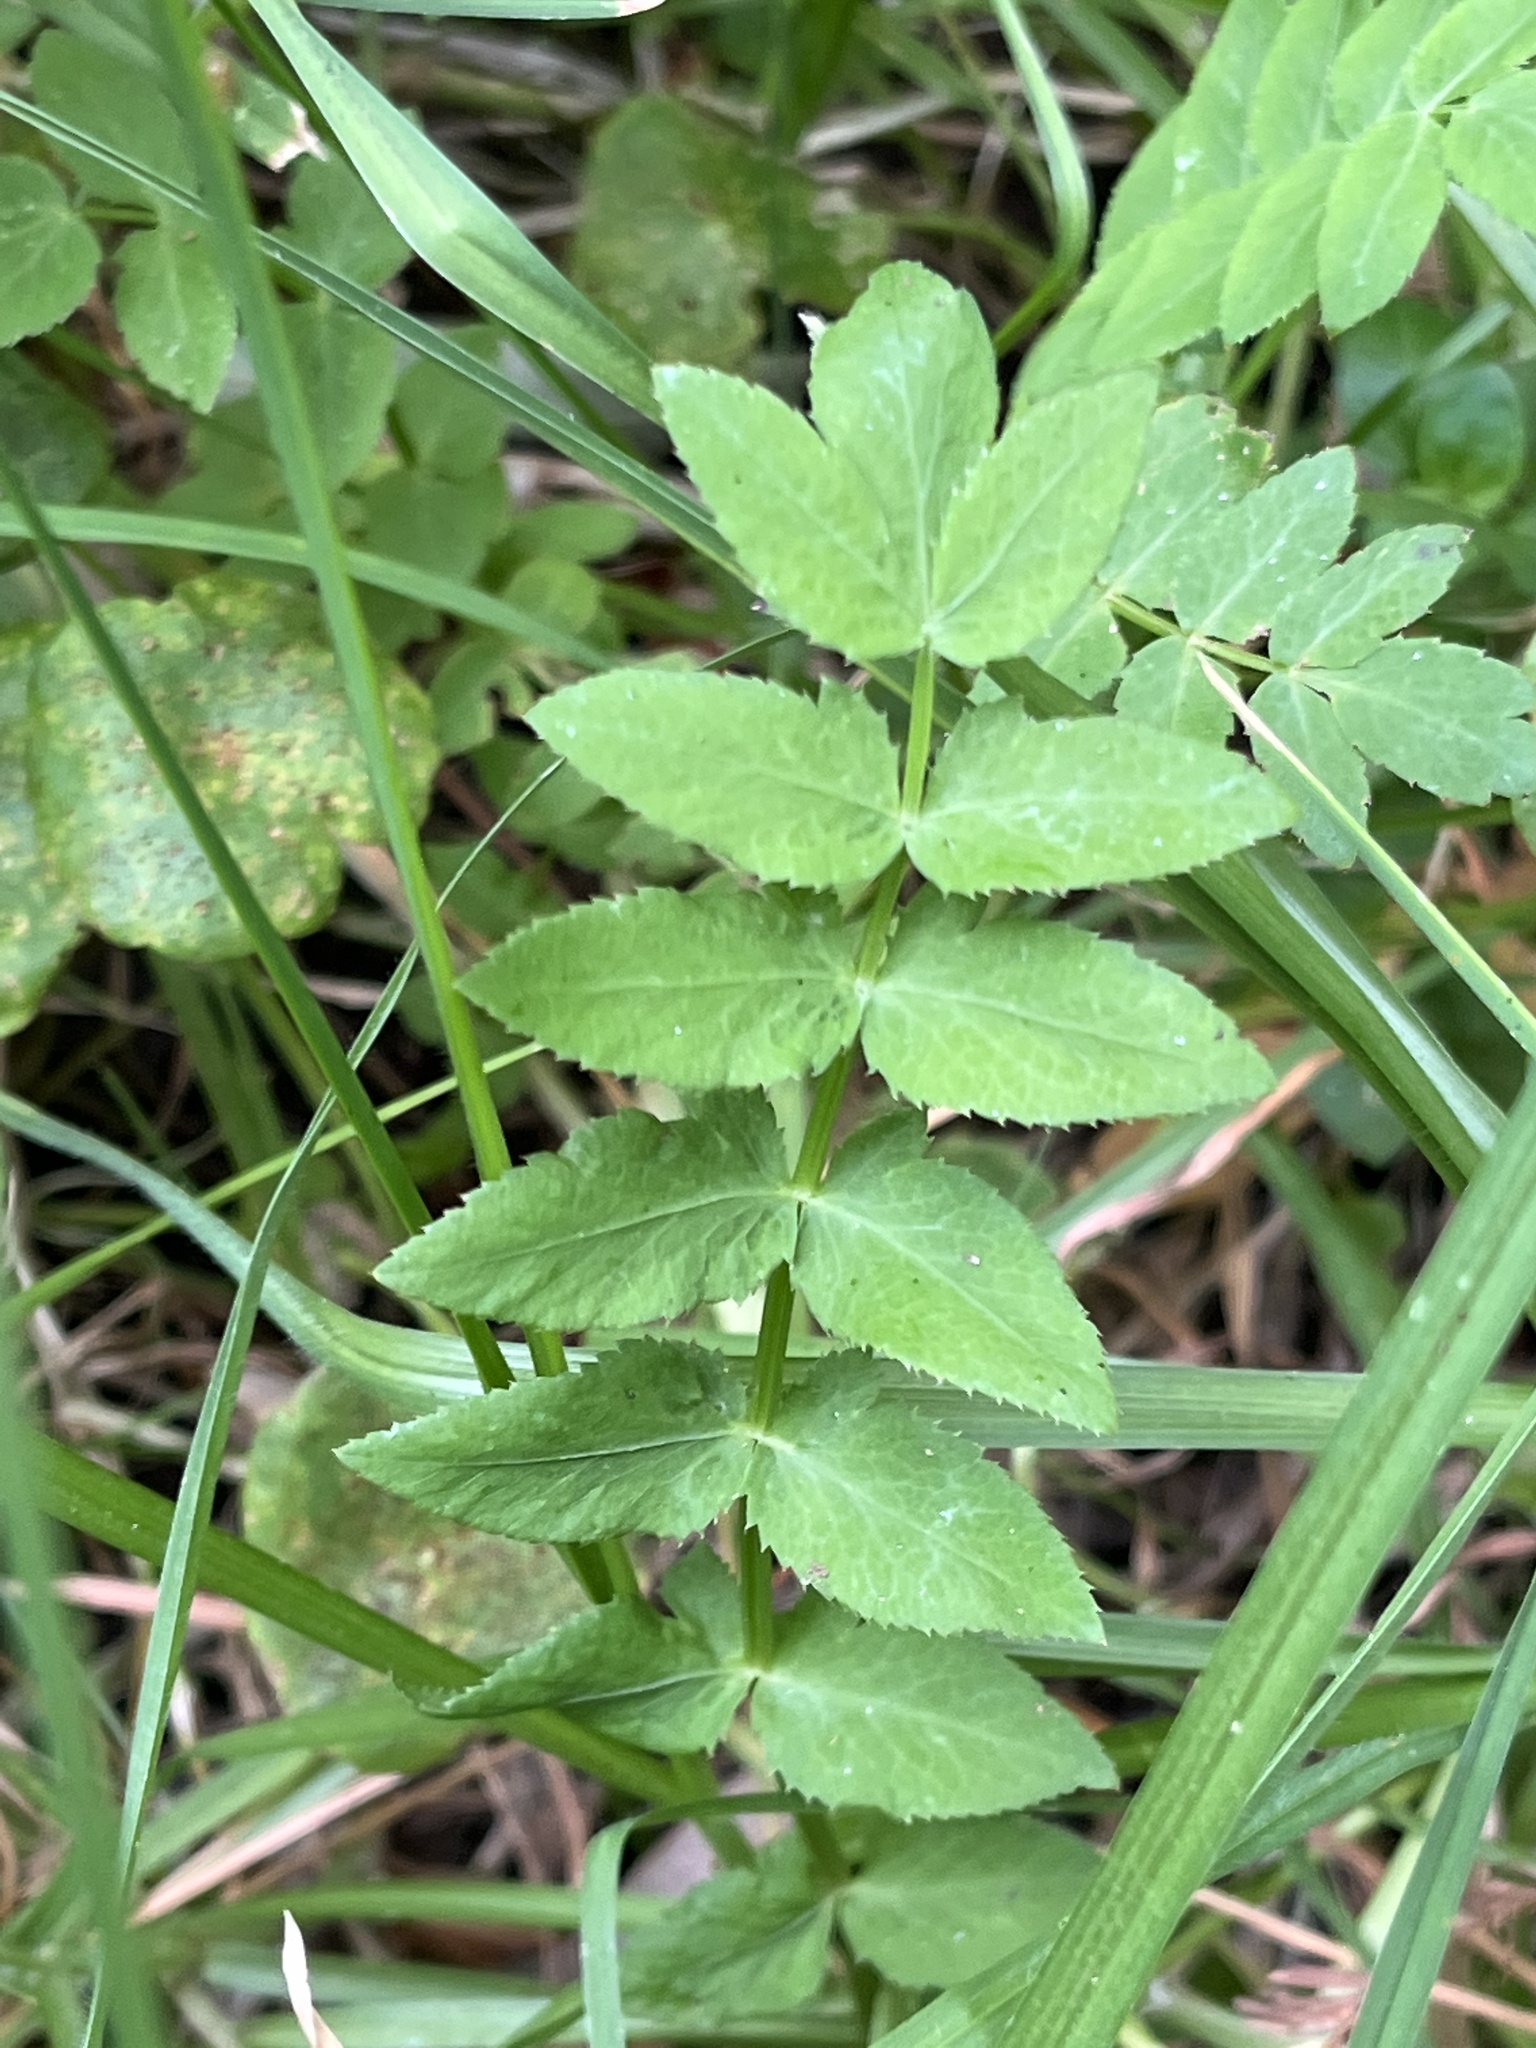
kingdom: Plantae
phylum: Tracheophyta
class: Magnoliopsida
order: Apiales
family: Apiaceae
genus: Berula
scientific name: Berula erecta
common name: Lesser water-parsnip
